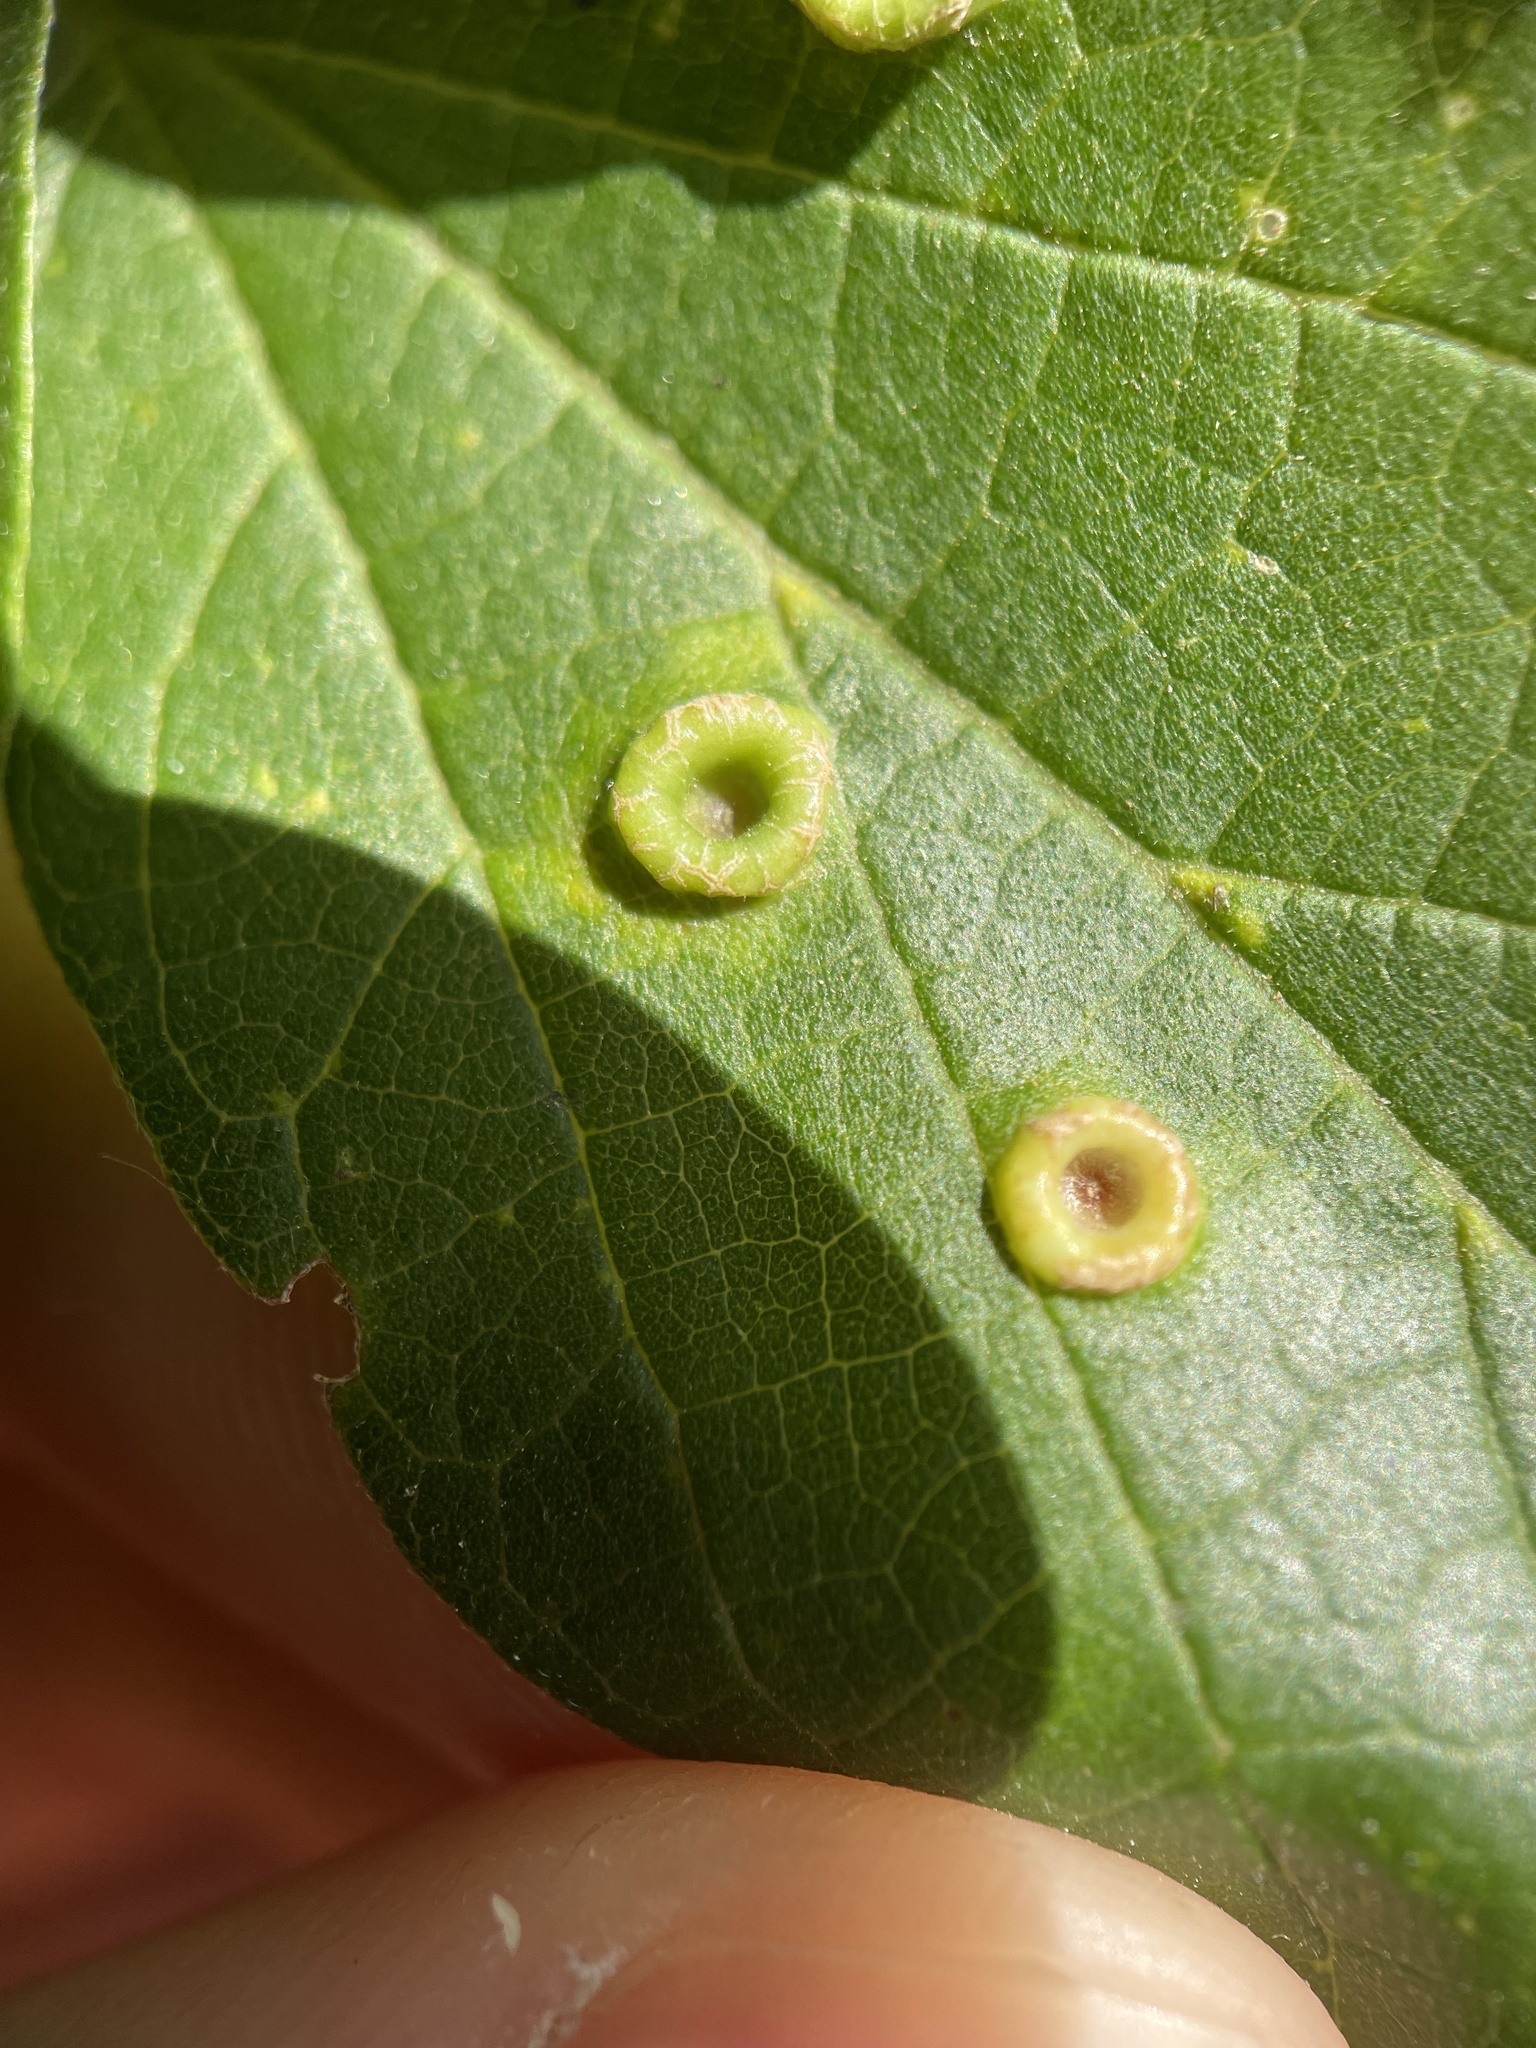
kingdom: Animalia
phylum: Arthropoda
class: Insecta
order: Hemiptera
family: Aphalaridae
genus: Pachypsylla
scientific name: Pachypsylla celtidismamma
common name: Hackberry nipplegall psyllid
